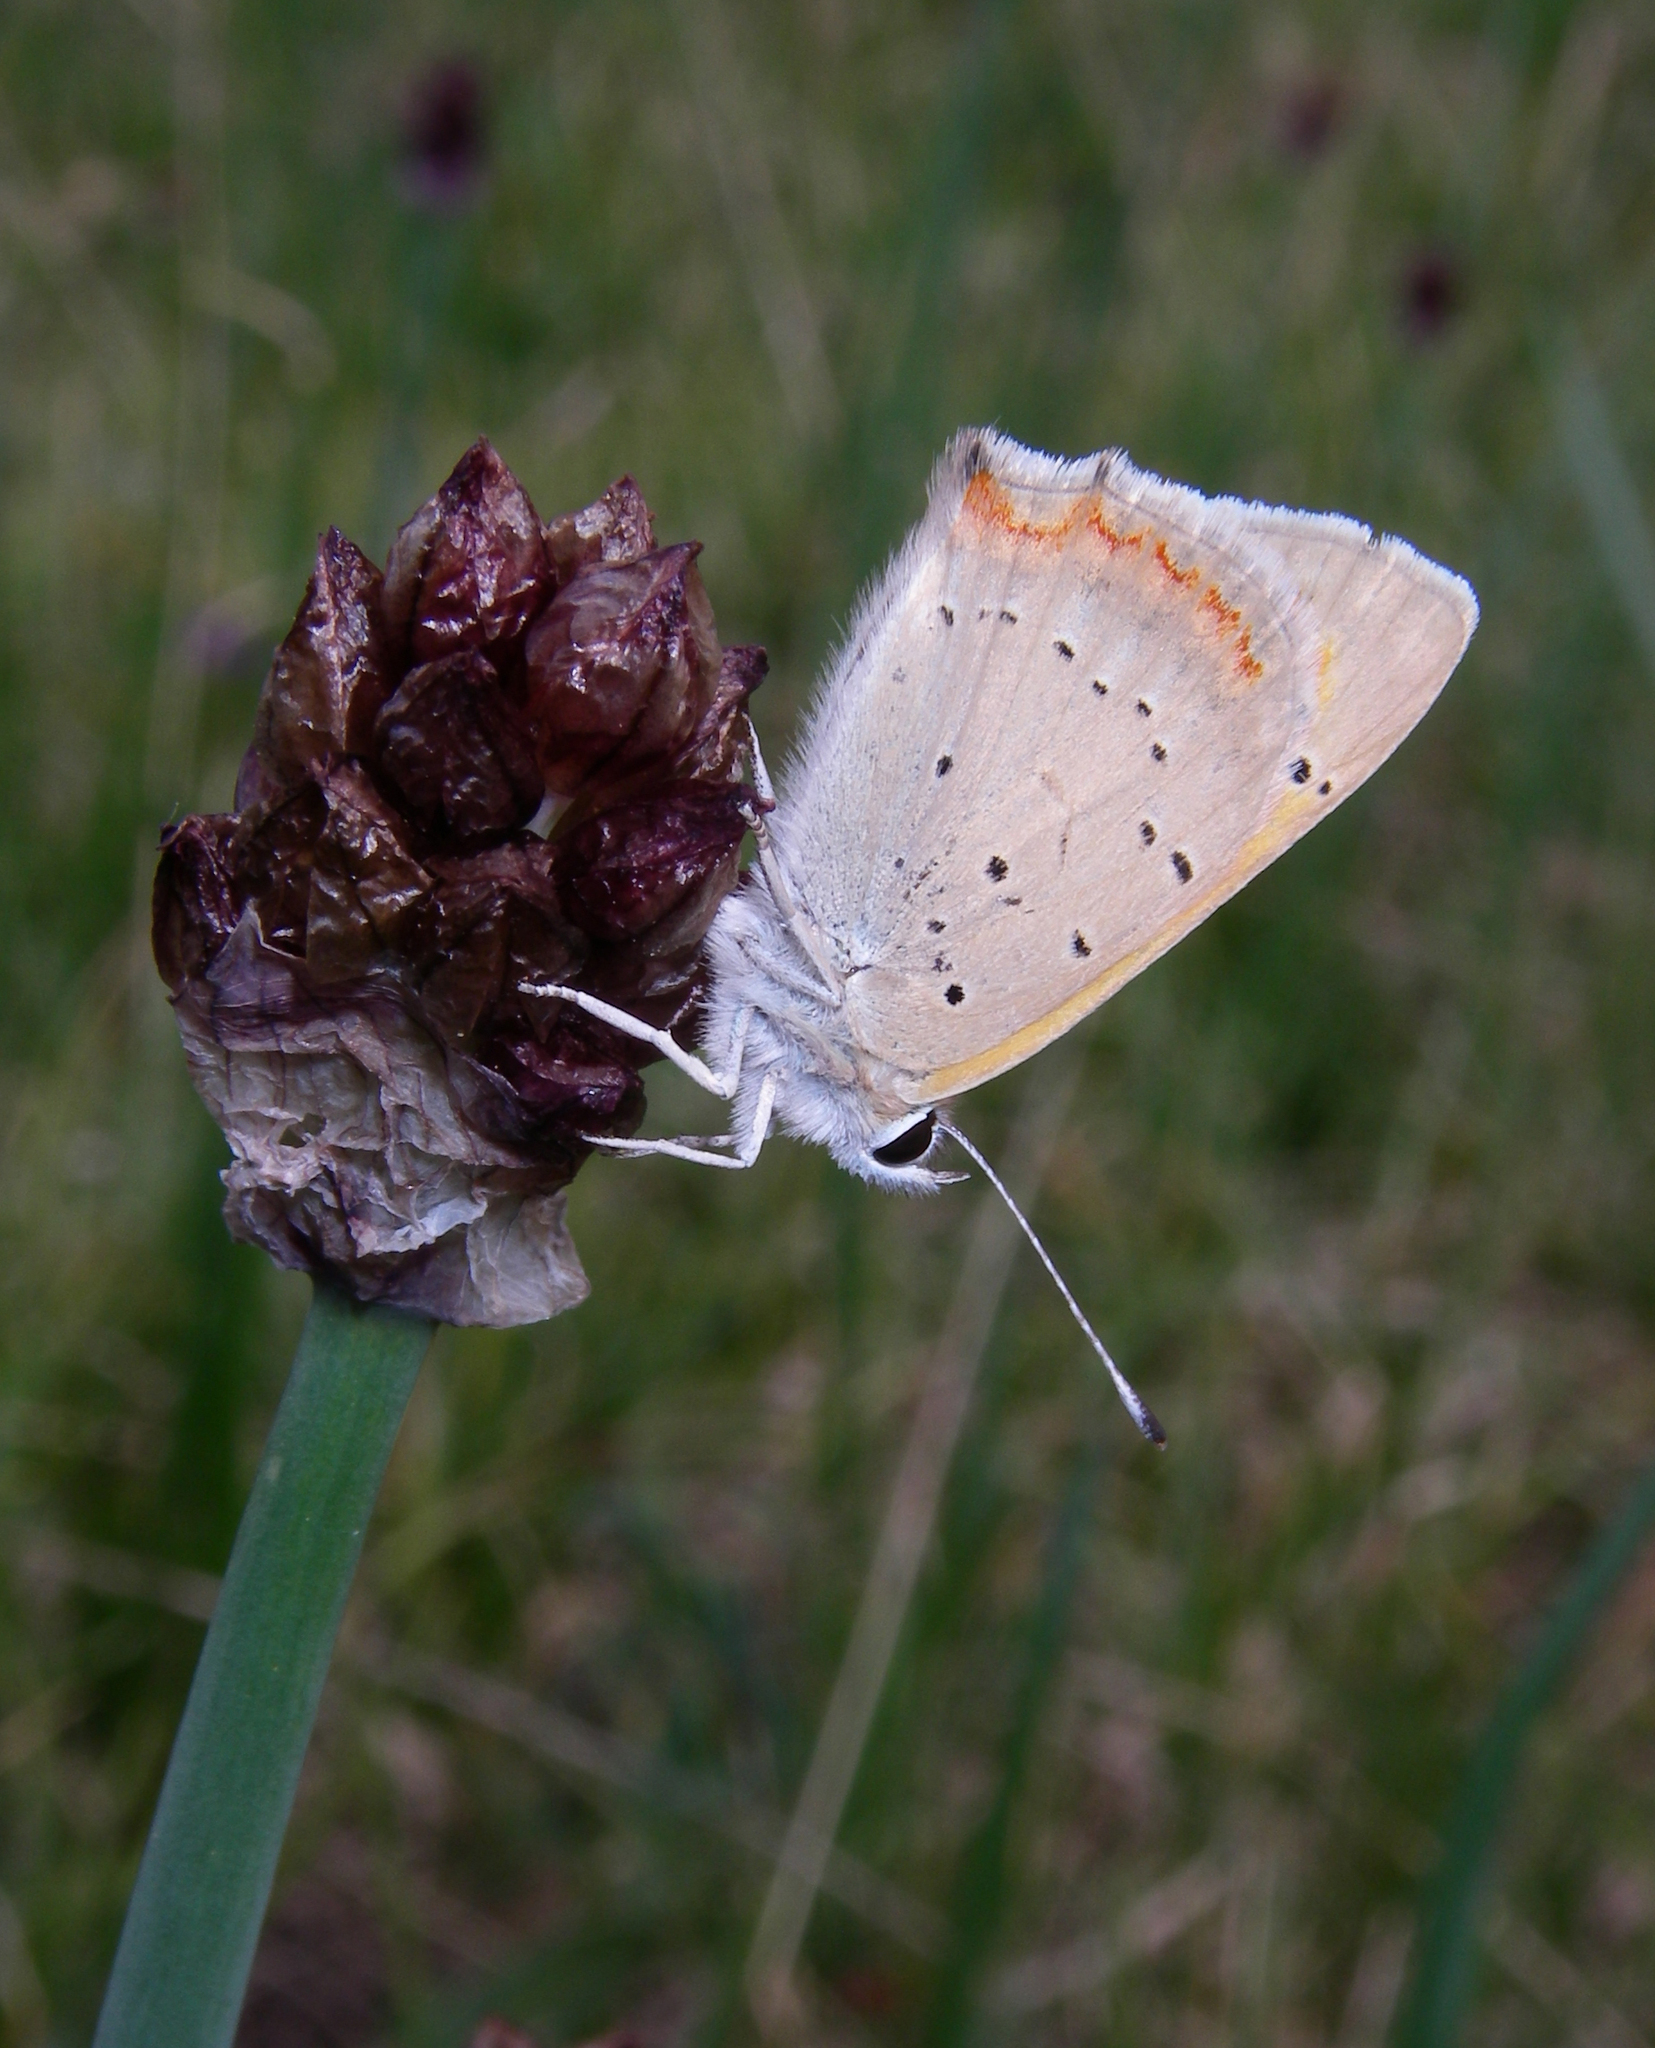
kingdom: Animalia
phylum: Arthropoda
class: Insecta
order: Lepidoptera
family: Lycaenidae
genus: Lycaena
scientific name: Lycaena phlaeas
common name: Small copper
